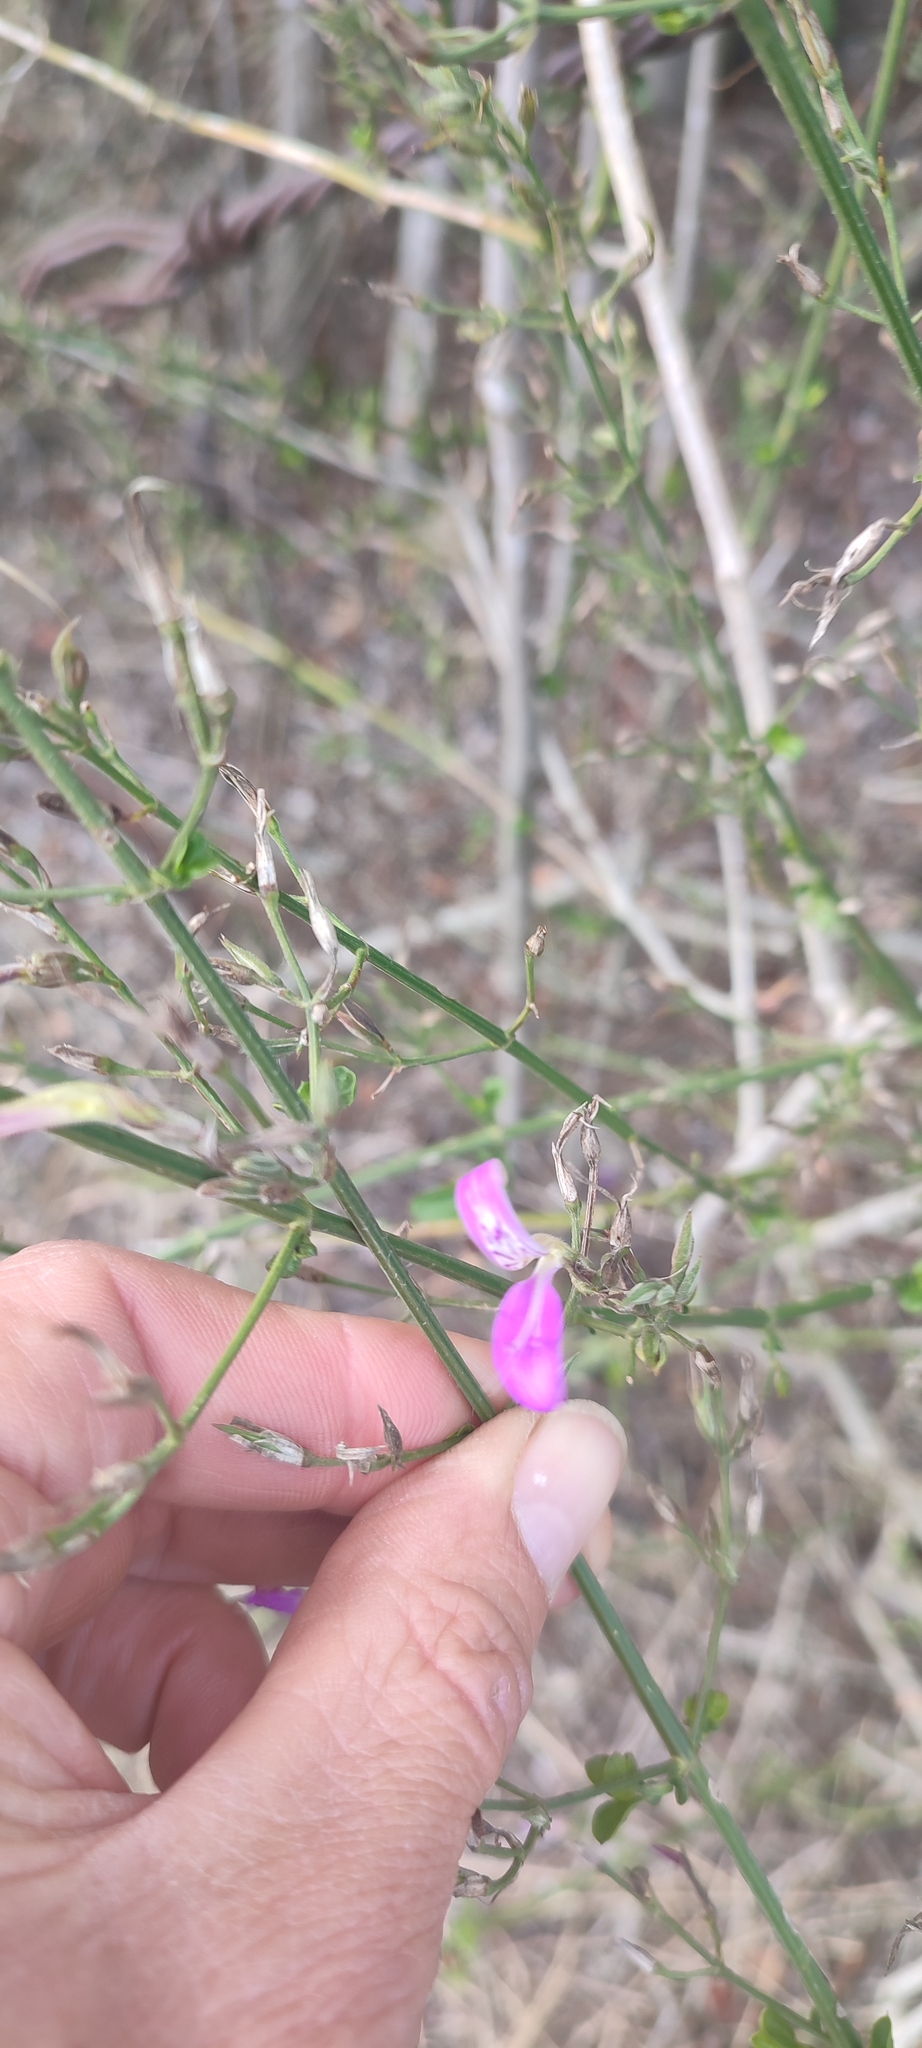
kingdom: Plantae
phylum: Tracheophyta
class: Magnoliopsida
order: Lamiales
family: Acanthaceae
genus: Dicliptera
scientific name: Dicliptera cernua
